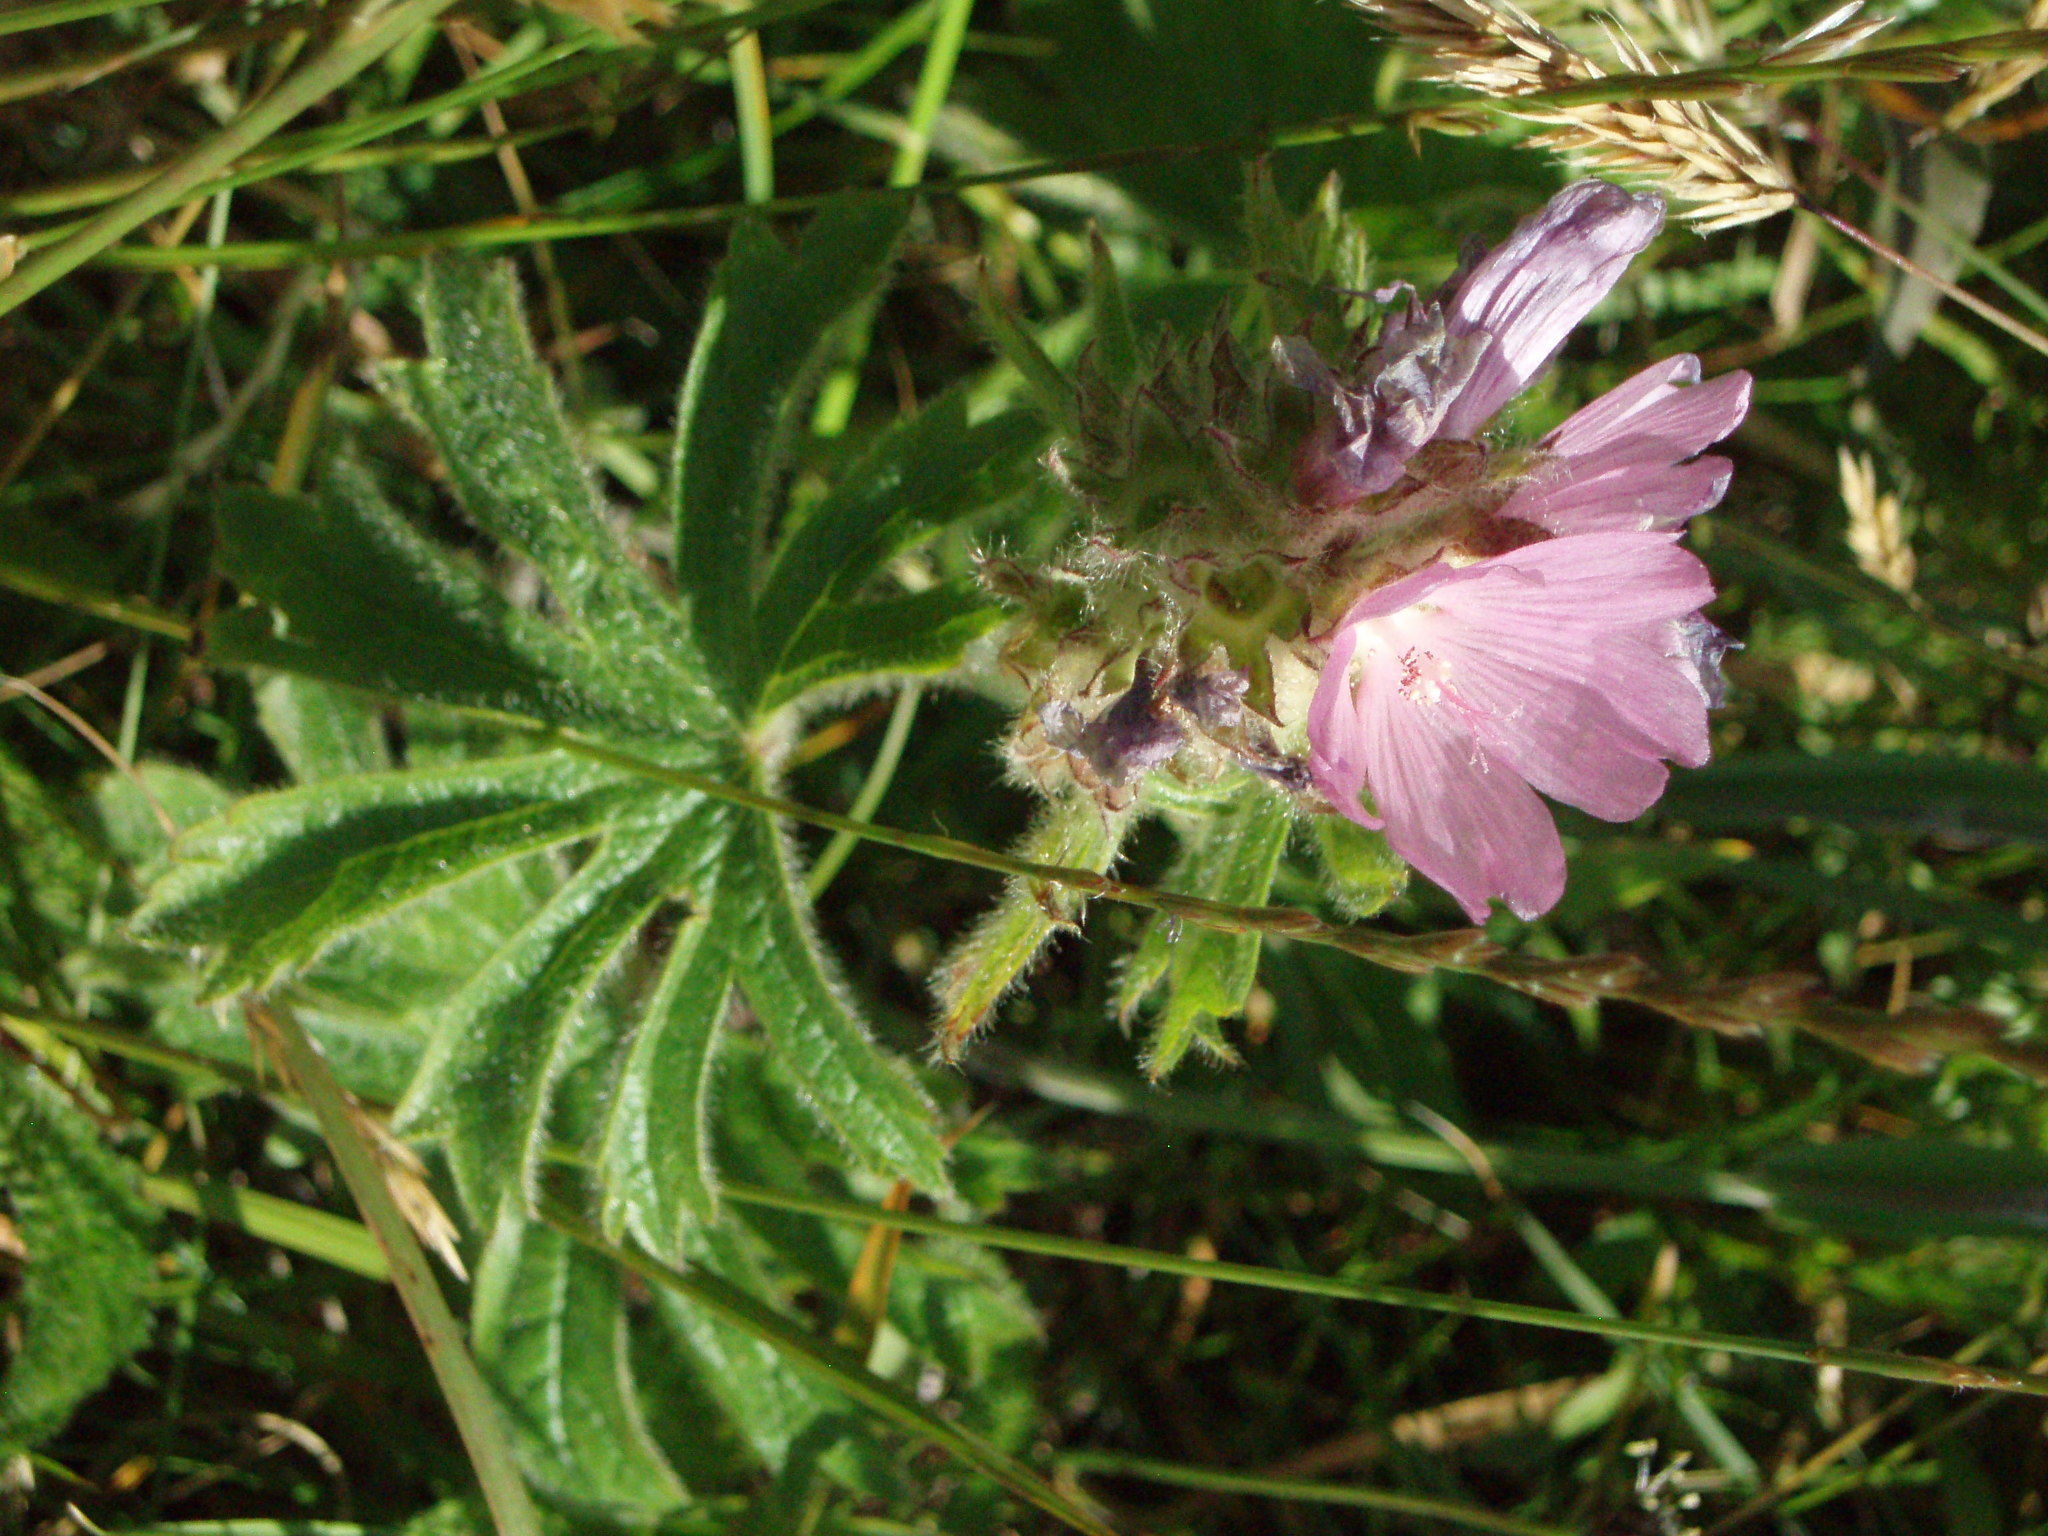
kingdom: Plantae
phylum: Tracheophyta
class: Magnoliopsida
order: Malvales
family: Malvaceae
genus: Sidalcea
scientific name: Sidalcea hirtipes
